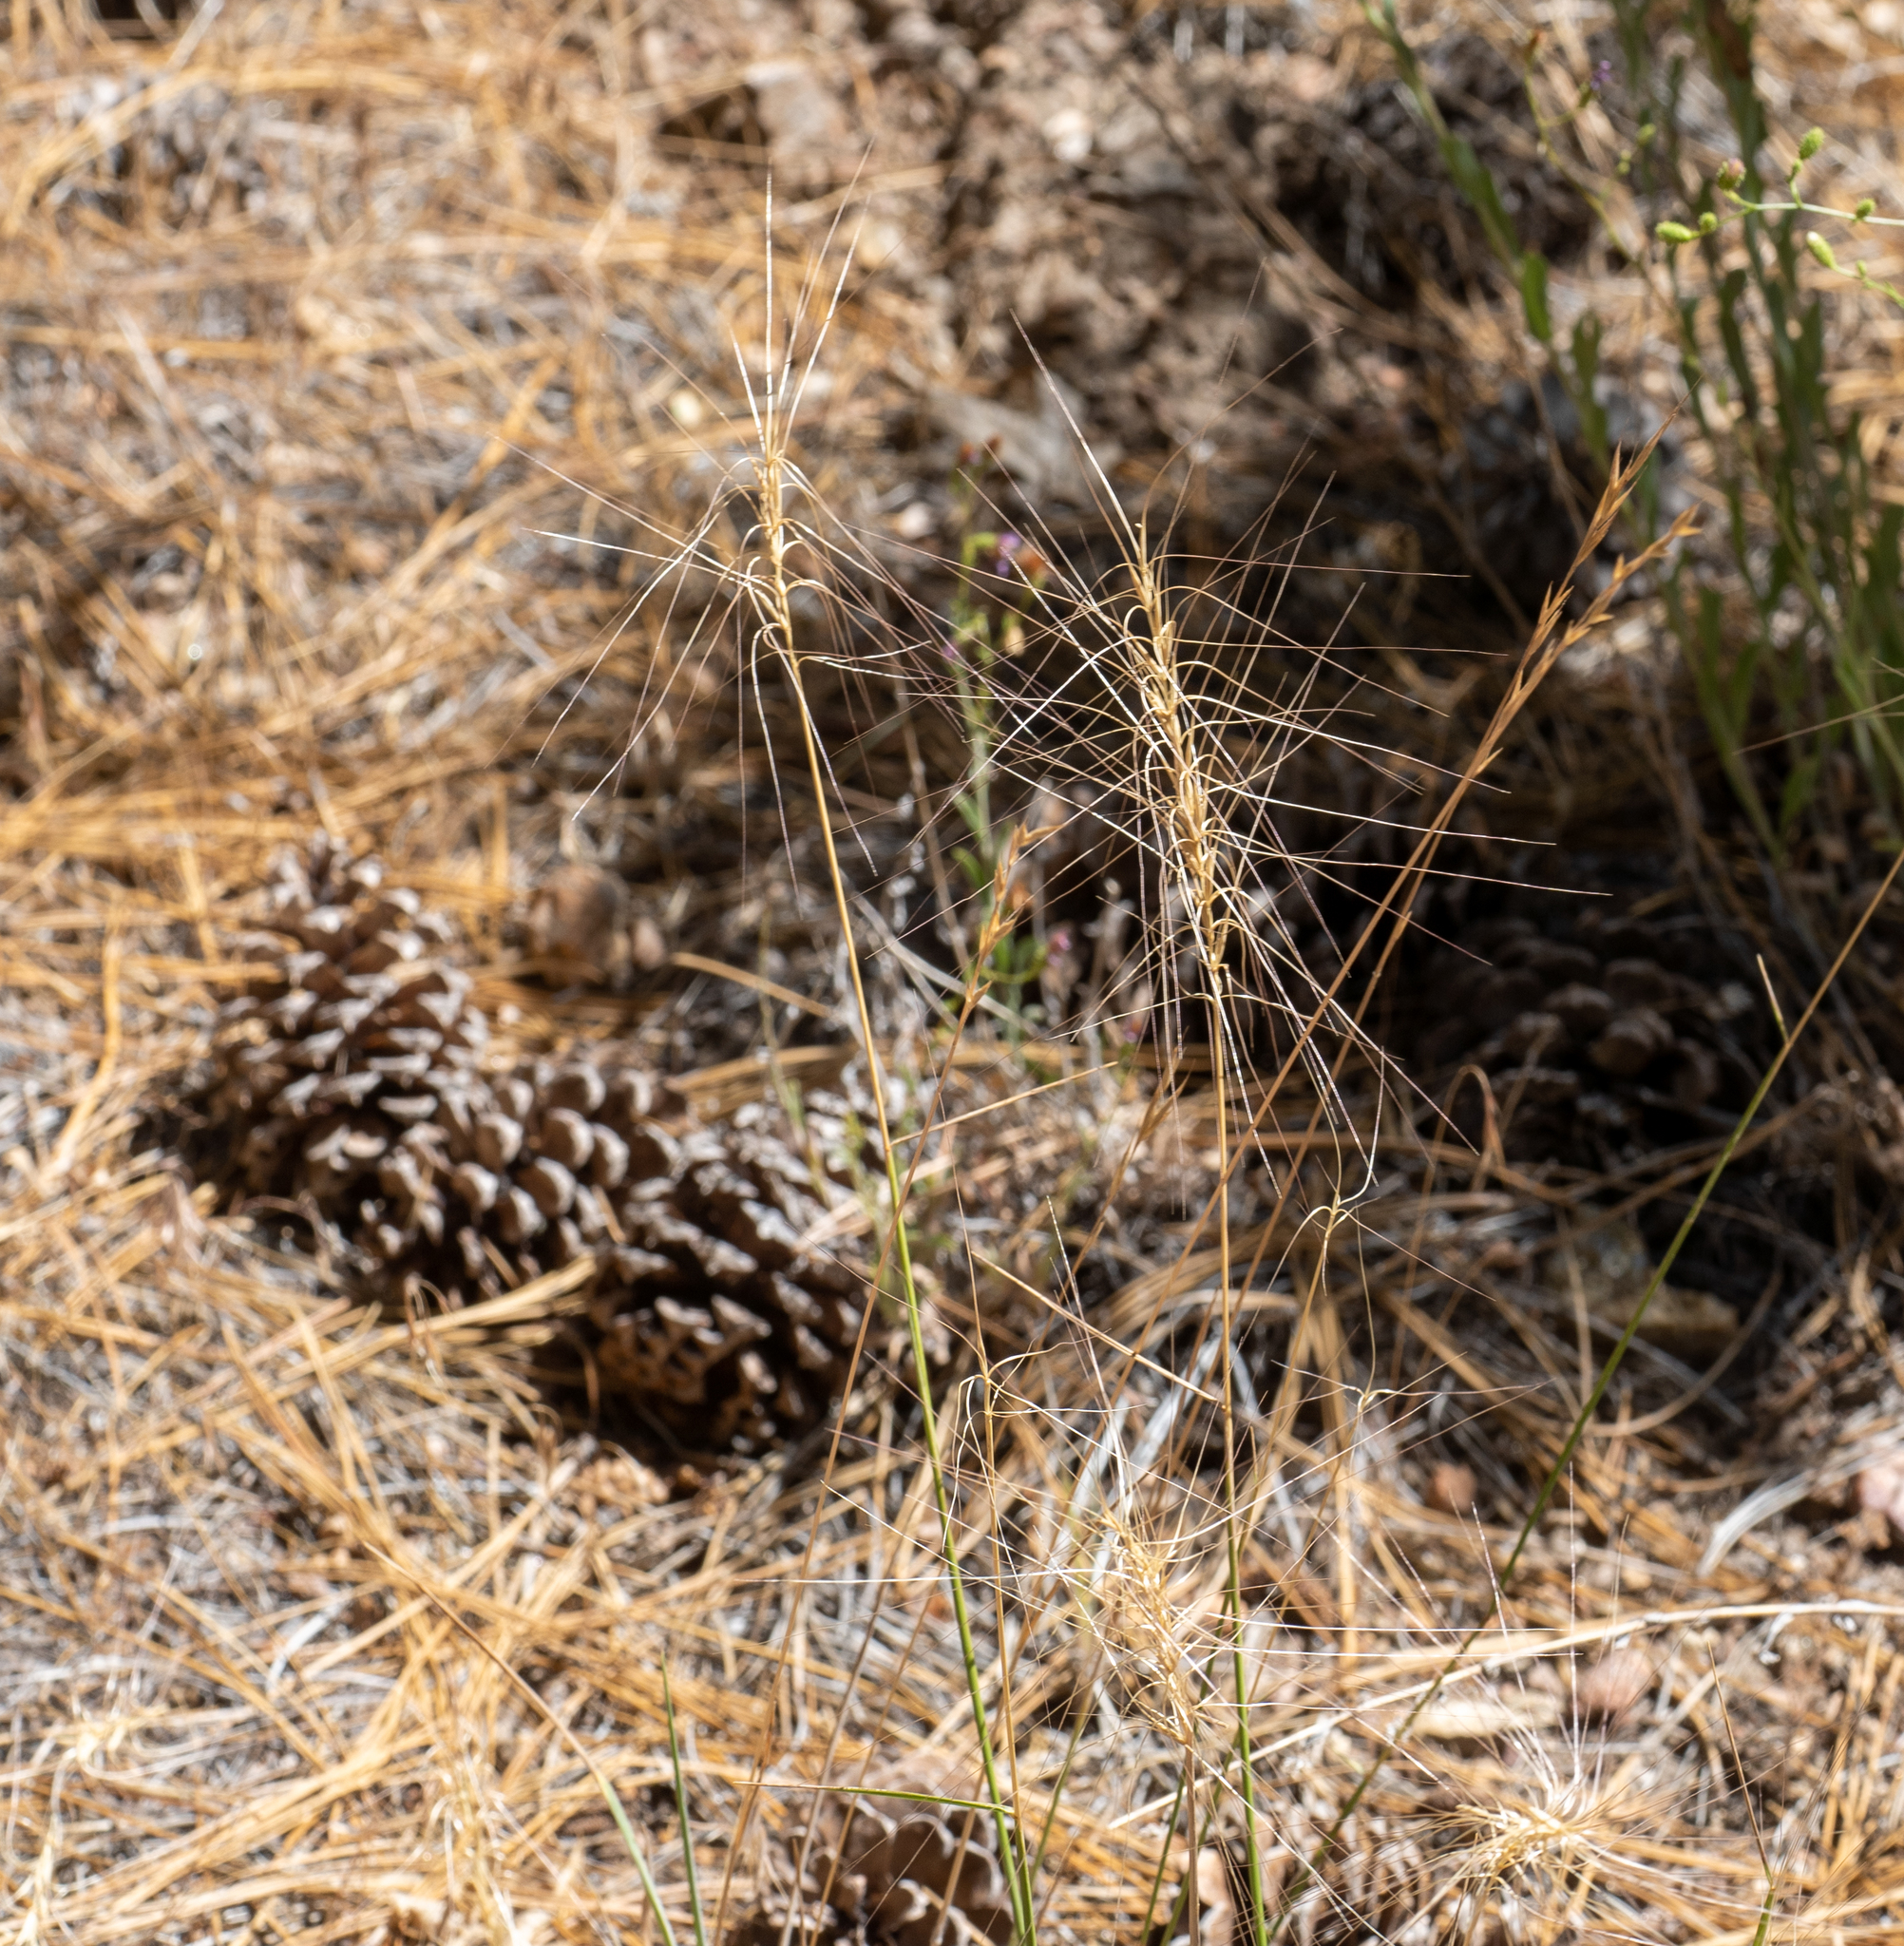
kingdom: Plantae
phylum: Tracheophyta
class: Liliopsida
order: Poales
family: Poaceae
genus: Elymus
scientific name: Elymus elymoides
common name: Bottlebrush squirreltail
